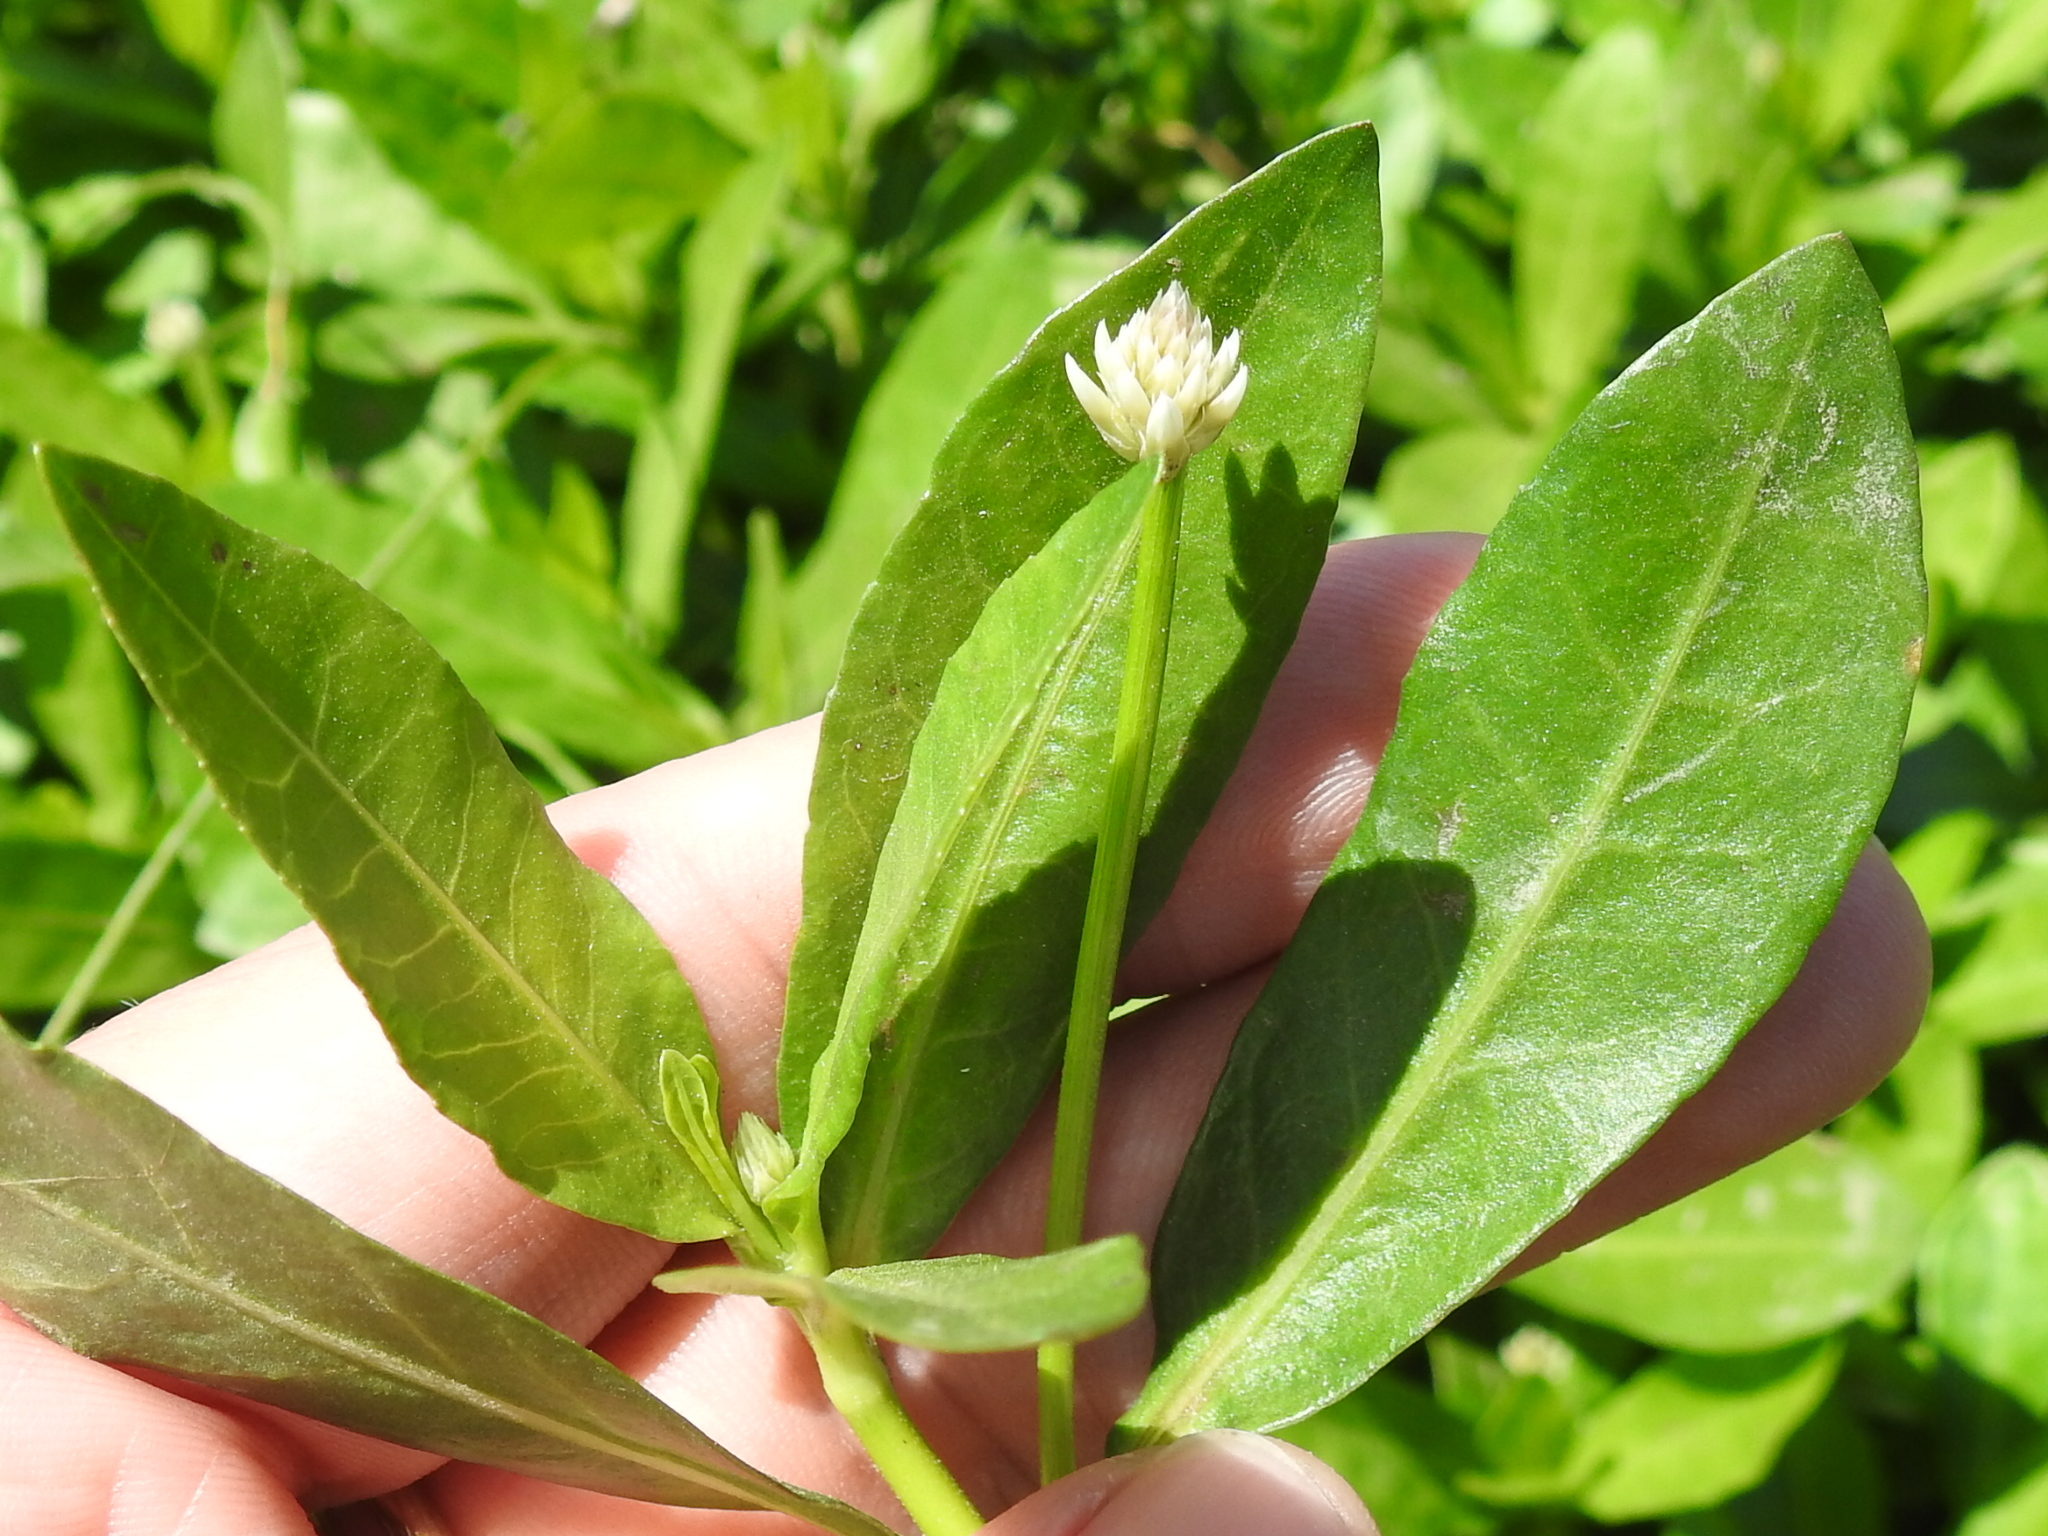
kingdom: Plantae
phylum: Tracheophyta
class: Magnoliopsida
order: Caryophyllales
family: Amaranthaceae
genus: Alternanthera
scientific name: Alternanthera philoxeroides
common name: Alligatorweed
